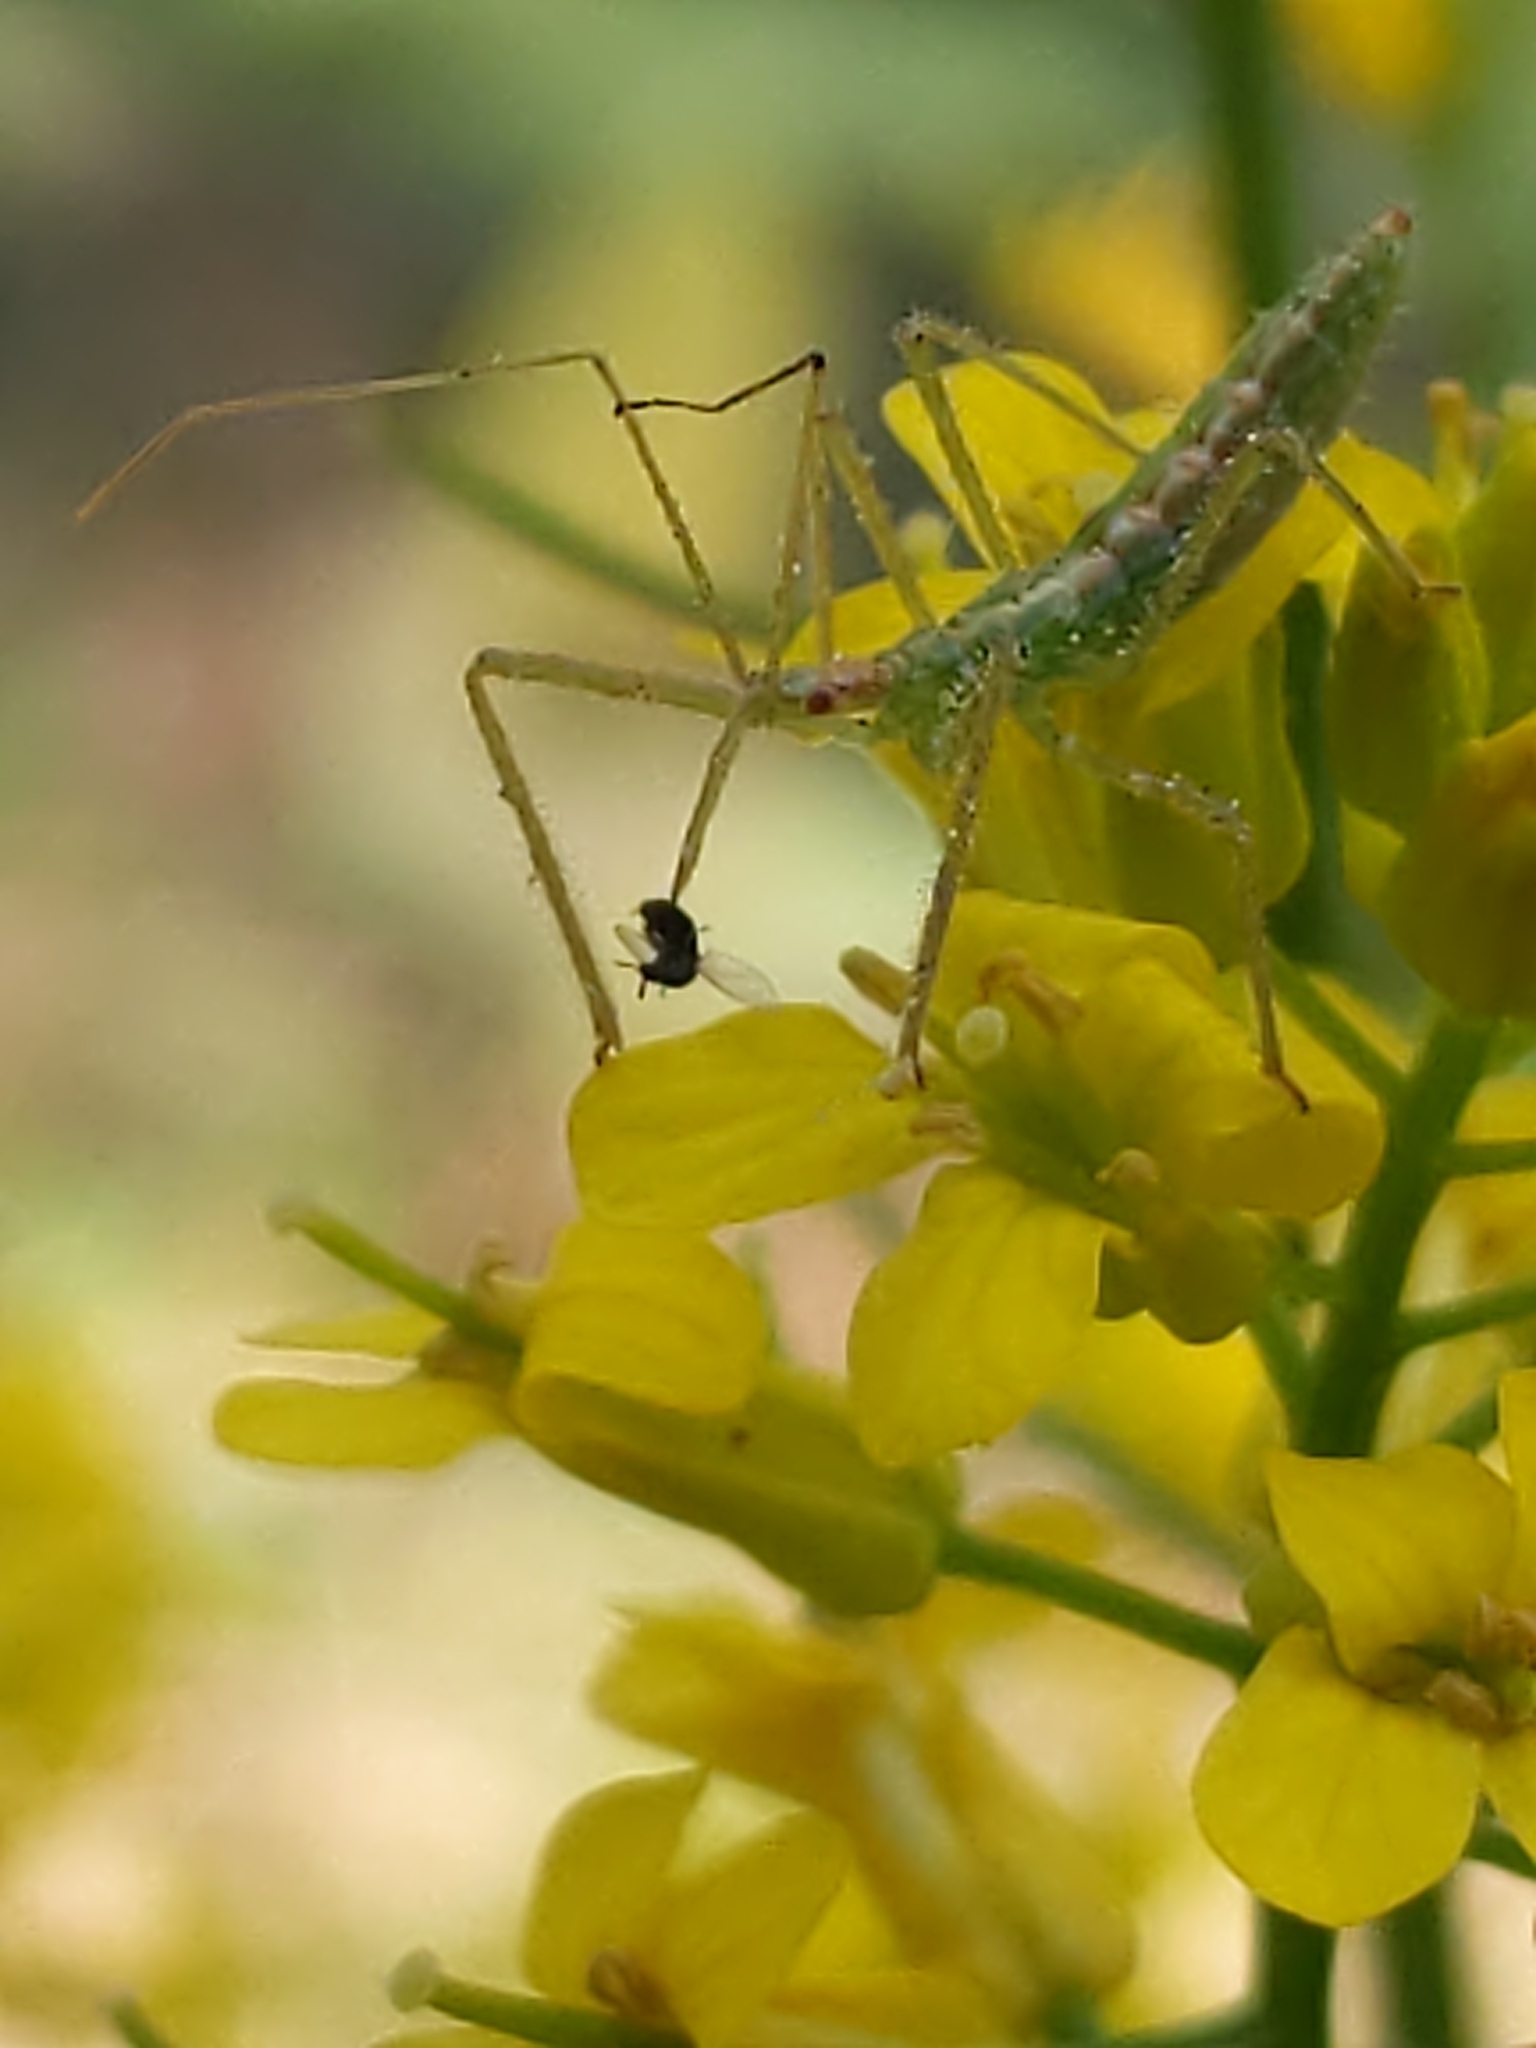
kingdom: Animalia
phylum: Arthropoda
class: Insecta
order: Hemiptera
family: Reduviidae
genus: Zelus
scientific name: Zelus luridus
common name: Pale green assassin bug
